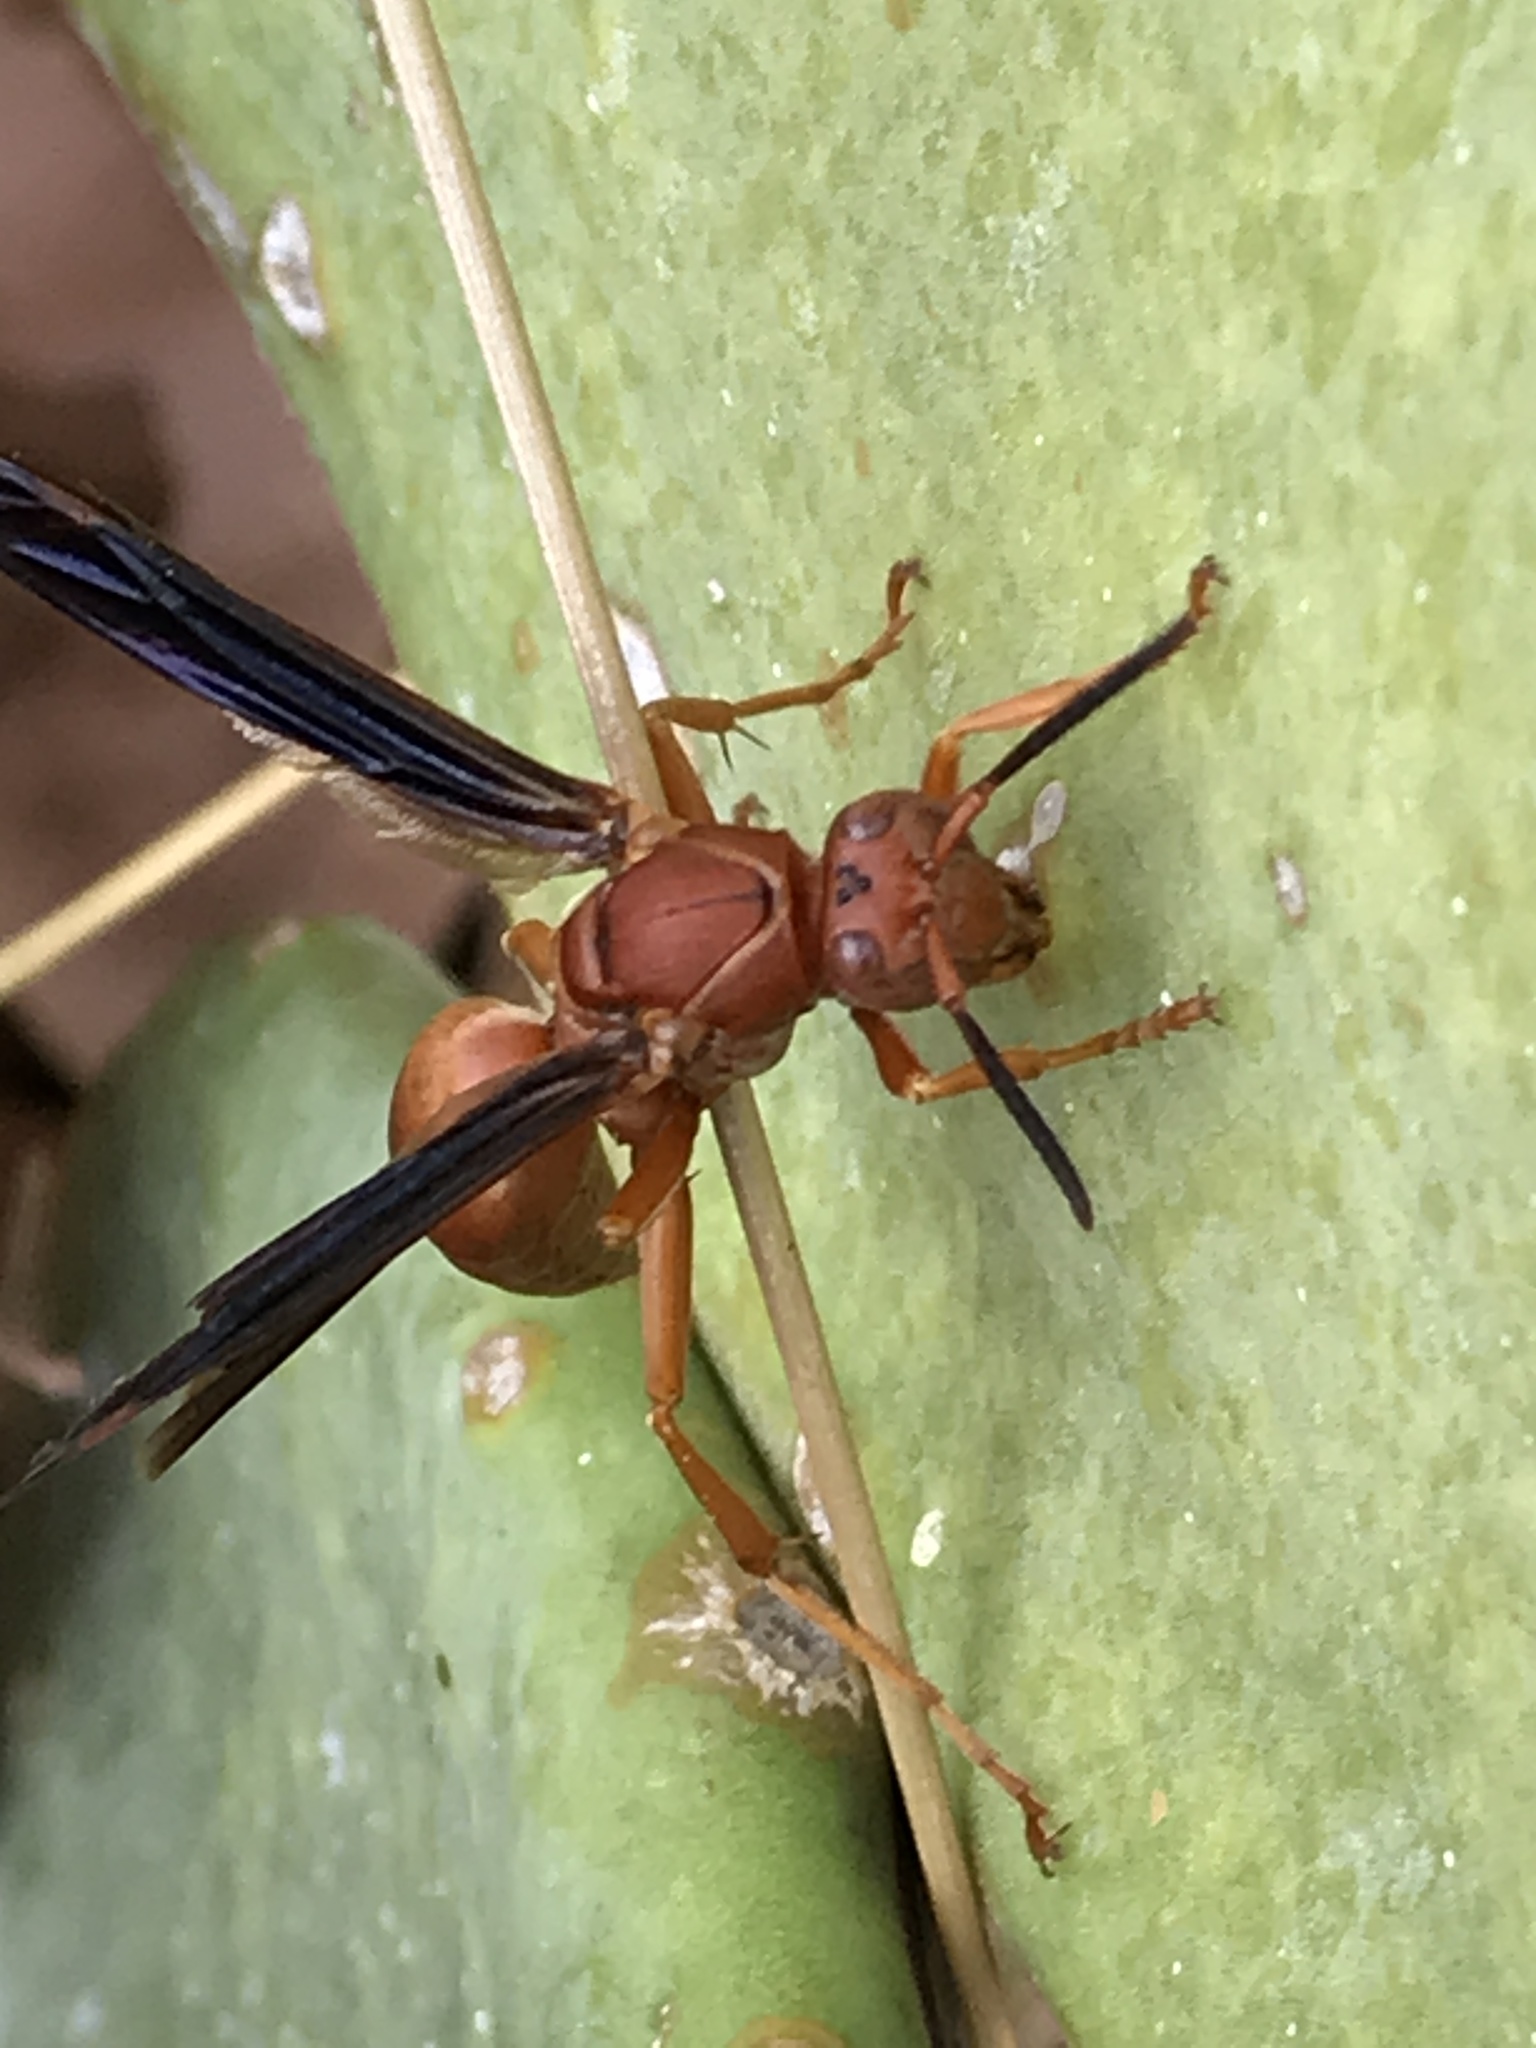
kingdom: Animalia
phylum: Arthropoda
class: Insecta
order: Hymenoptera
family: Vespidae
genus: Fuscopolistes
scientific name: Fuscopolistes
